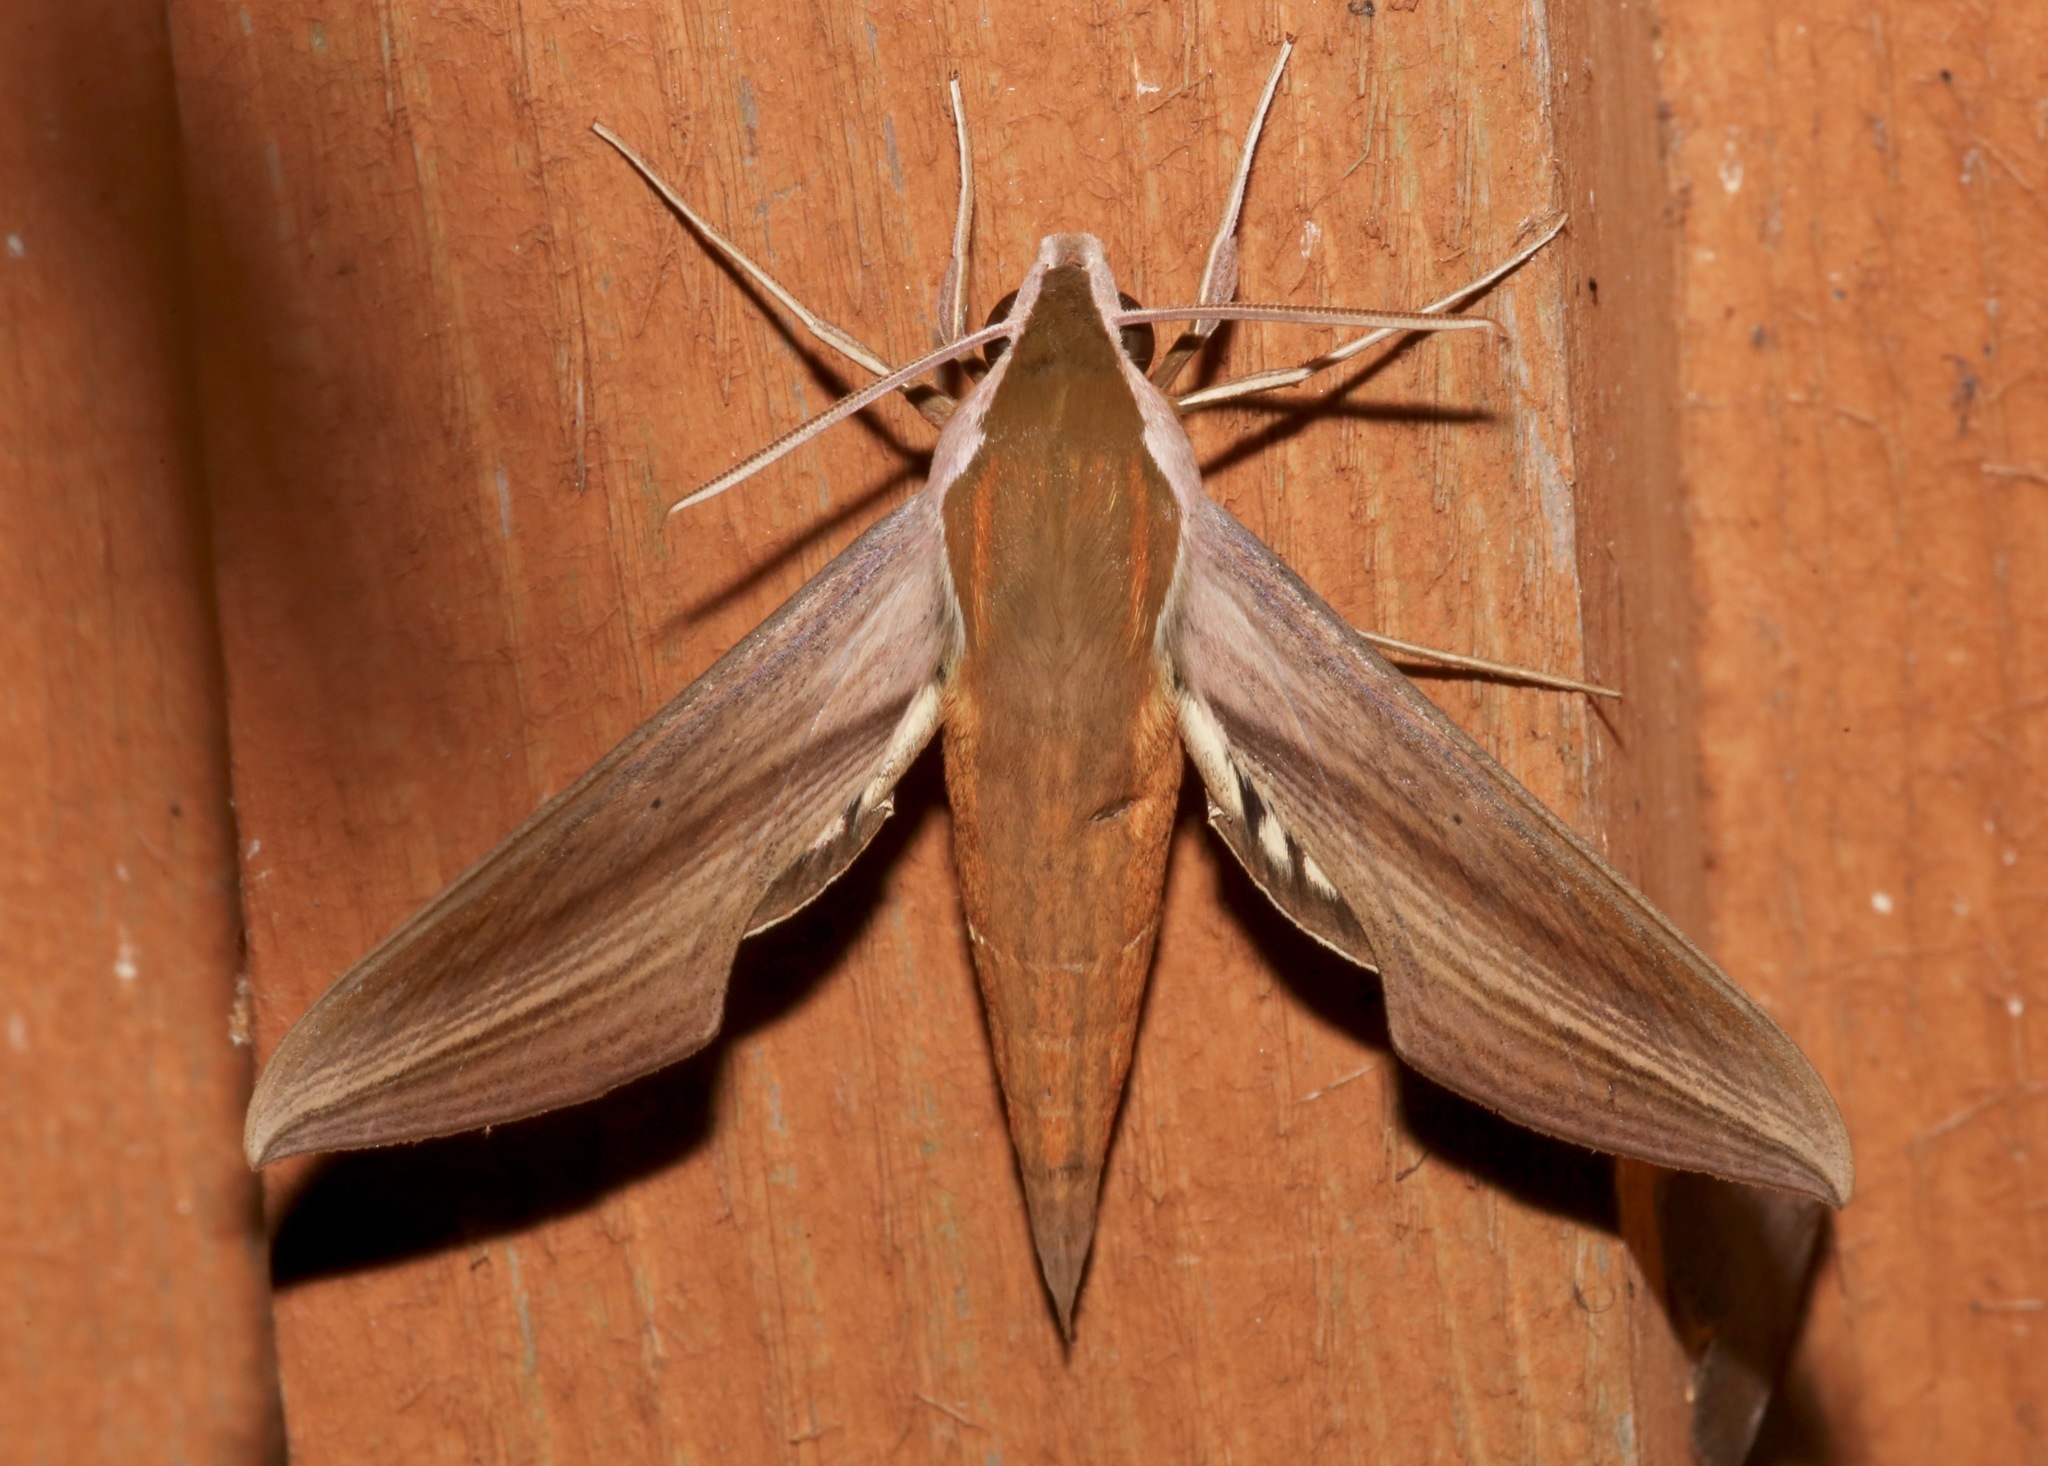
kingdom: Animalia
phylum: Arthropoda
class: Insecta
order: Lepidoptera
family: Sphingidae
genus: Xylophanes
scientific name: Xylophanes tersa
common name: Tersa sphinx
